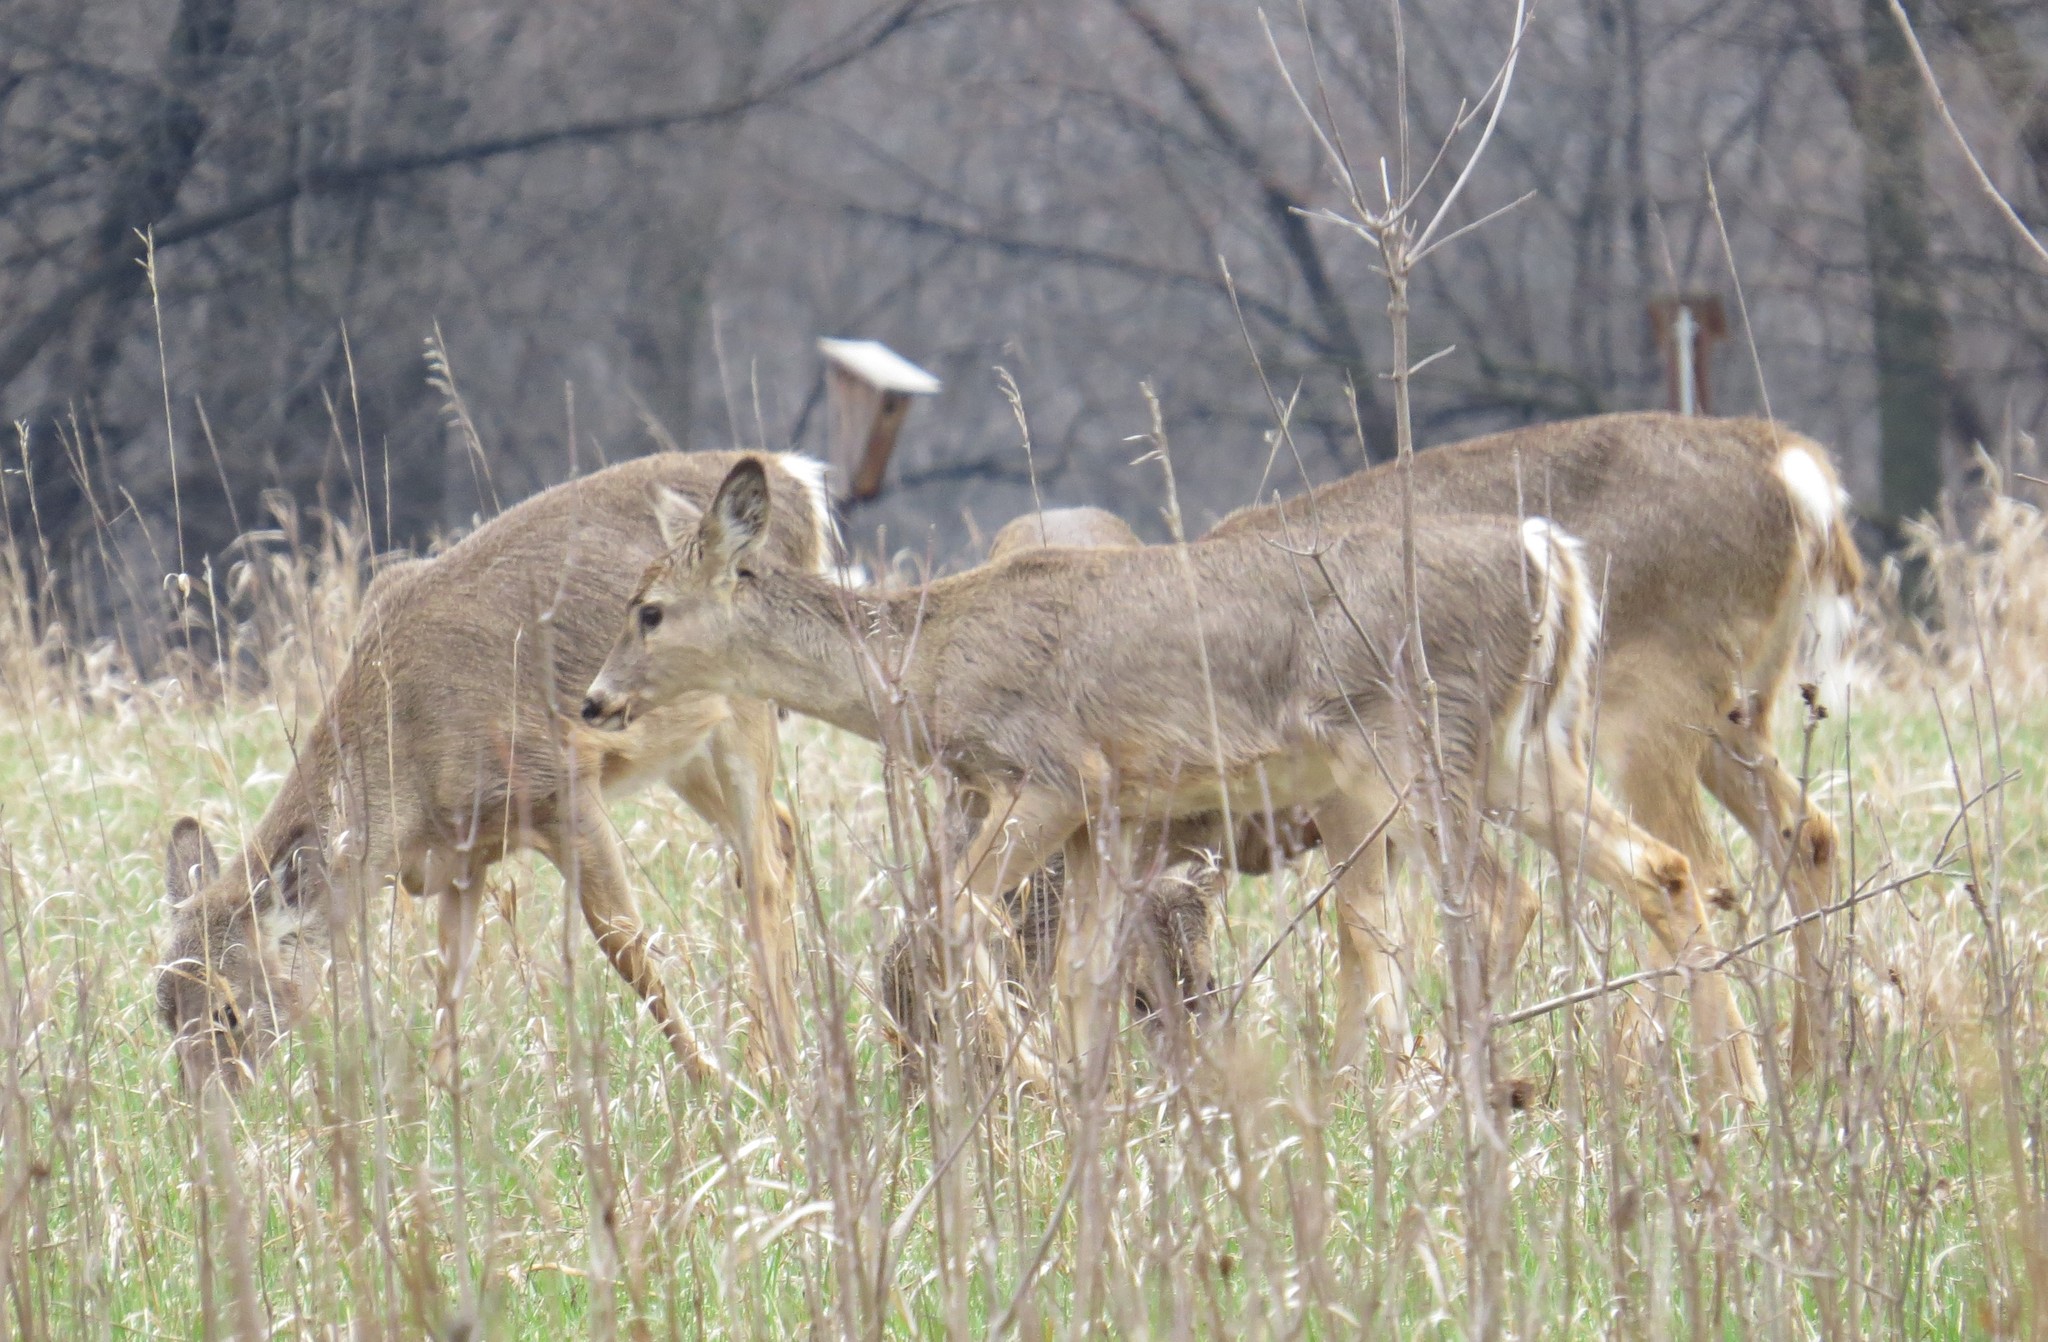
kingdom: Animalia
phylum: Chordata
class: Mammalia
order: Artiodactyla
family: Cervidae
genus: Odocoileus
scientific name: Odocoileus virginianus
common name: White-tailed deer
